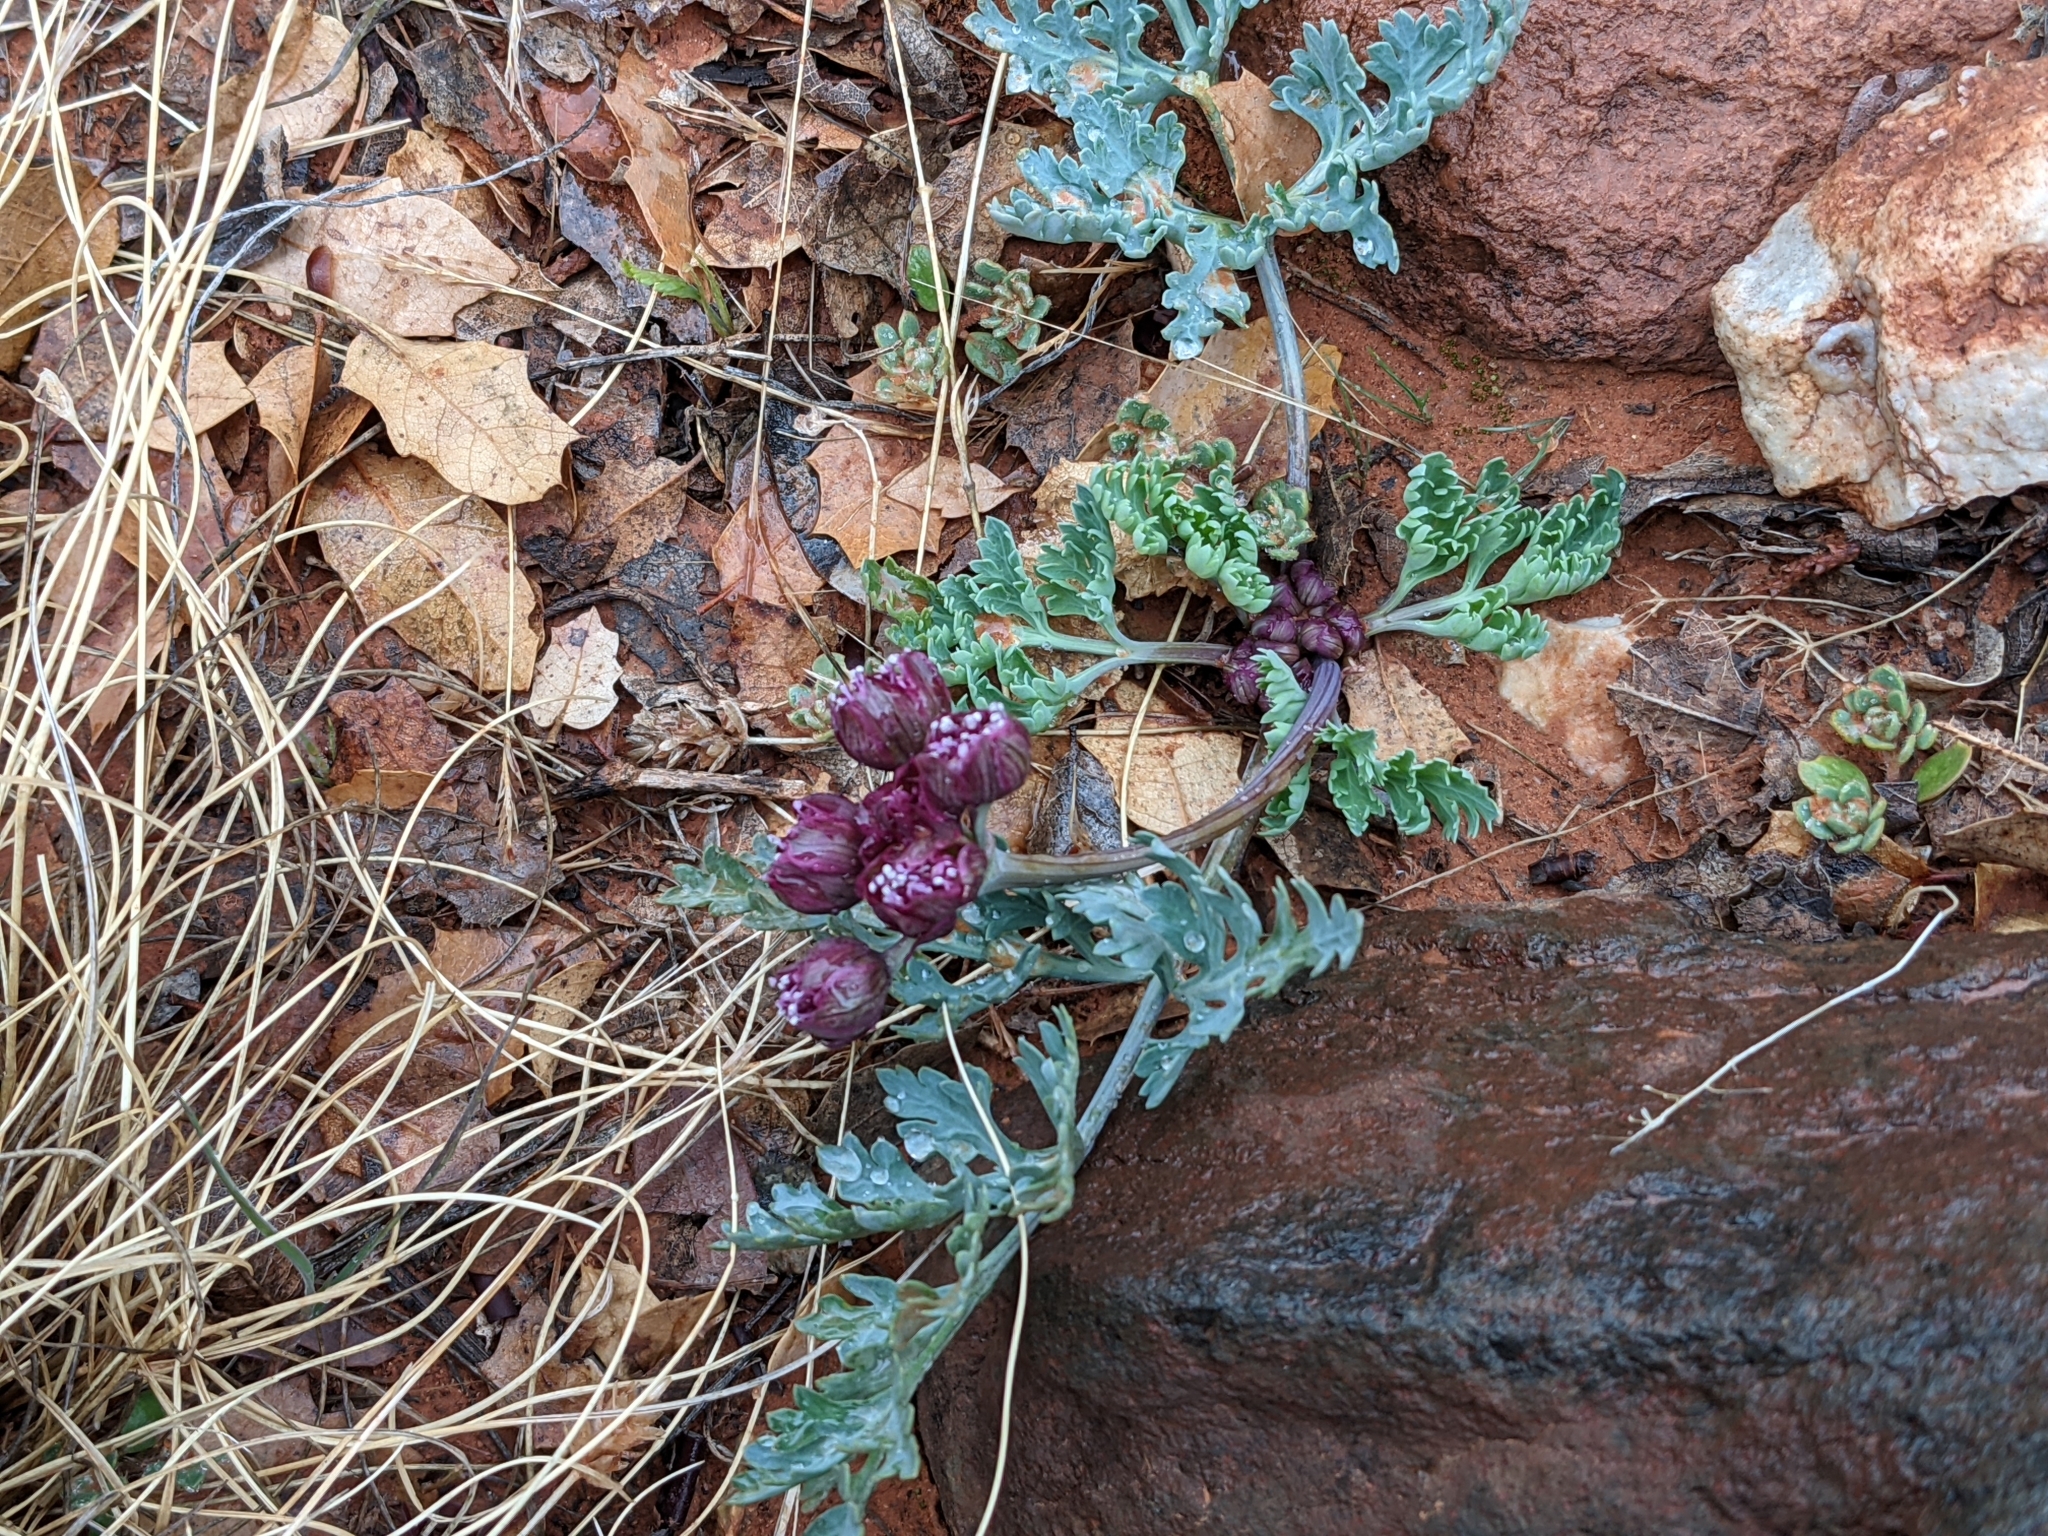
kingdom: Plantae
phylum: Tracheophyta
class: Magnoliopsida
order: Apiales
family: Apiaceae
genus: Vesper
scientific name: Vesper multinervatus
